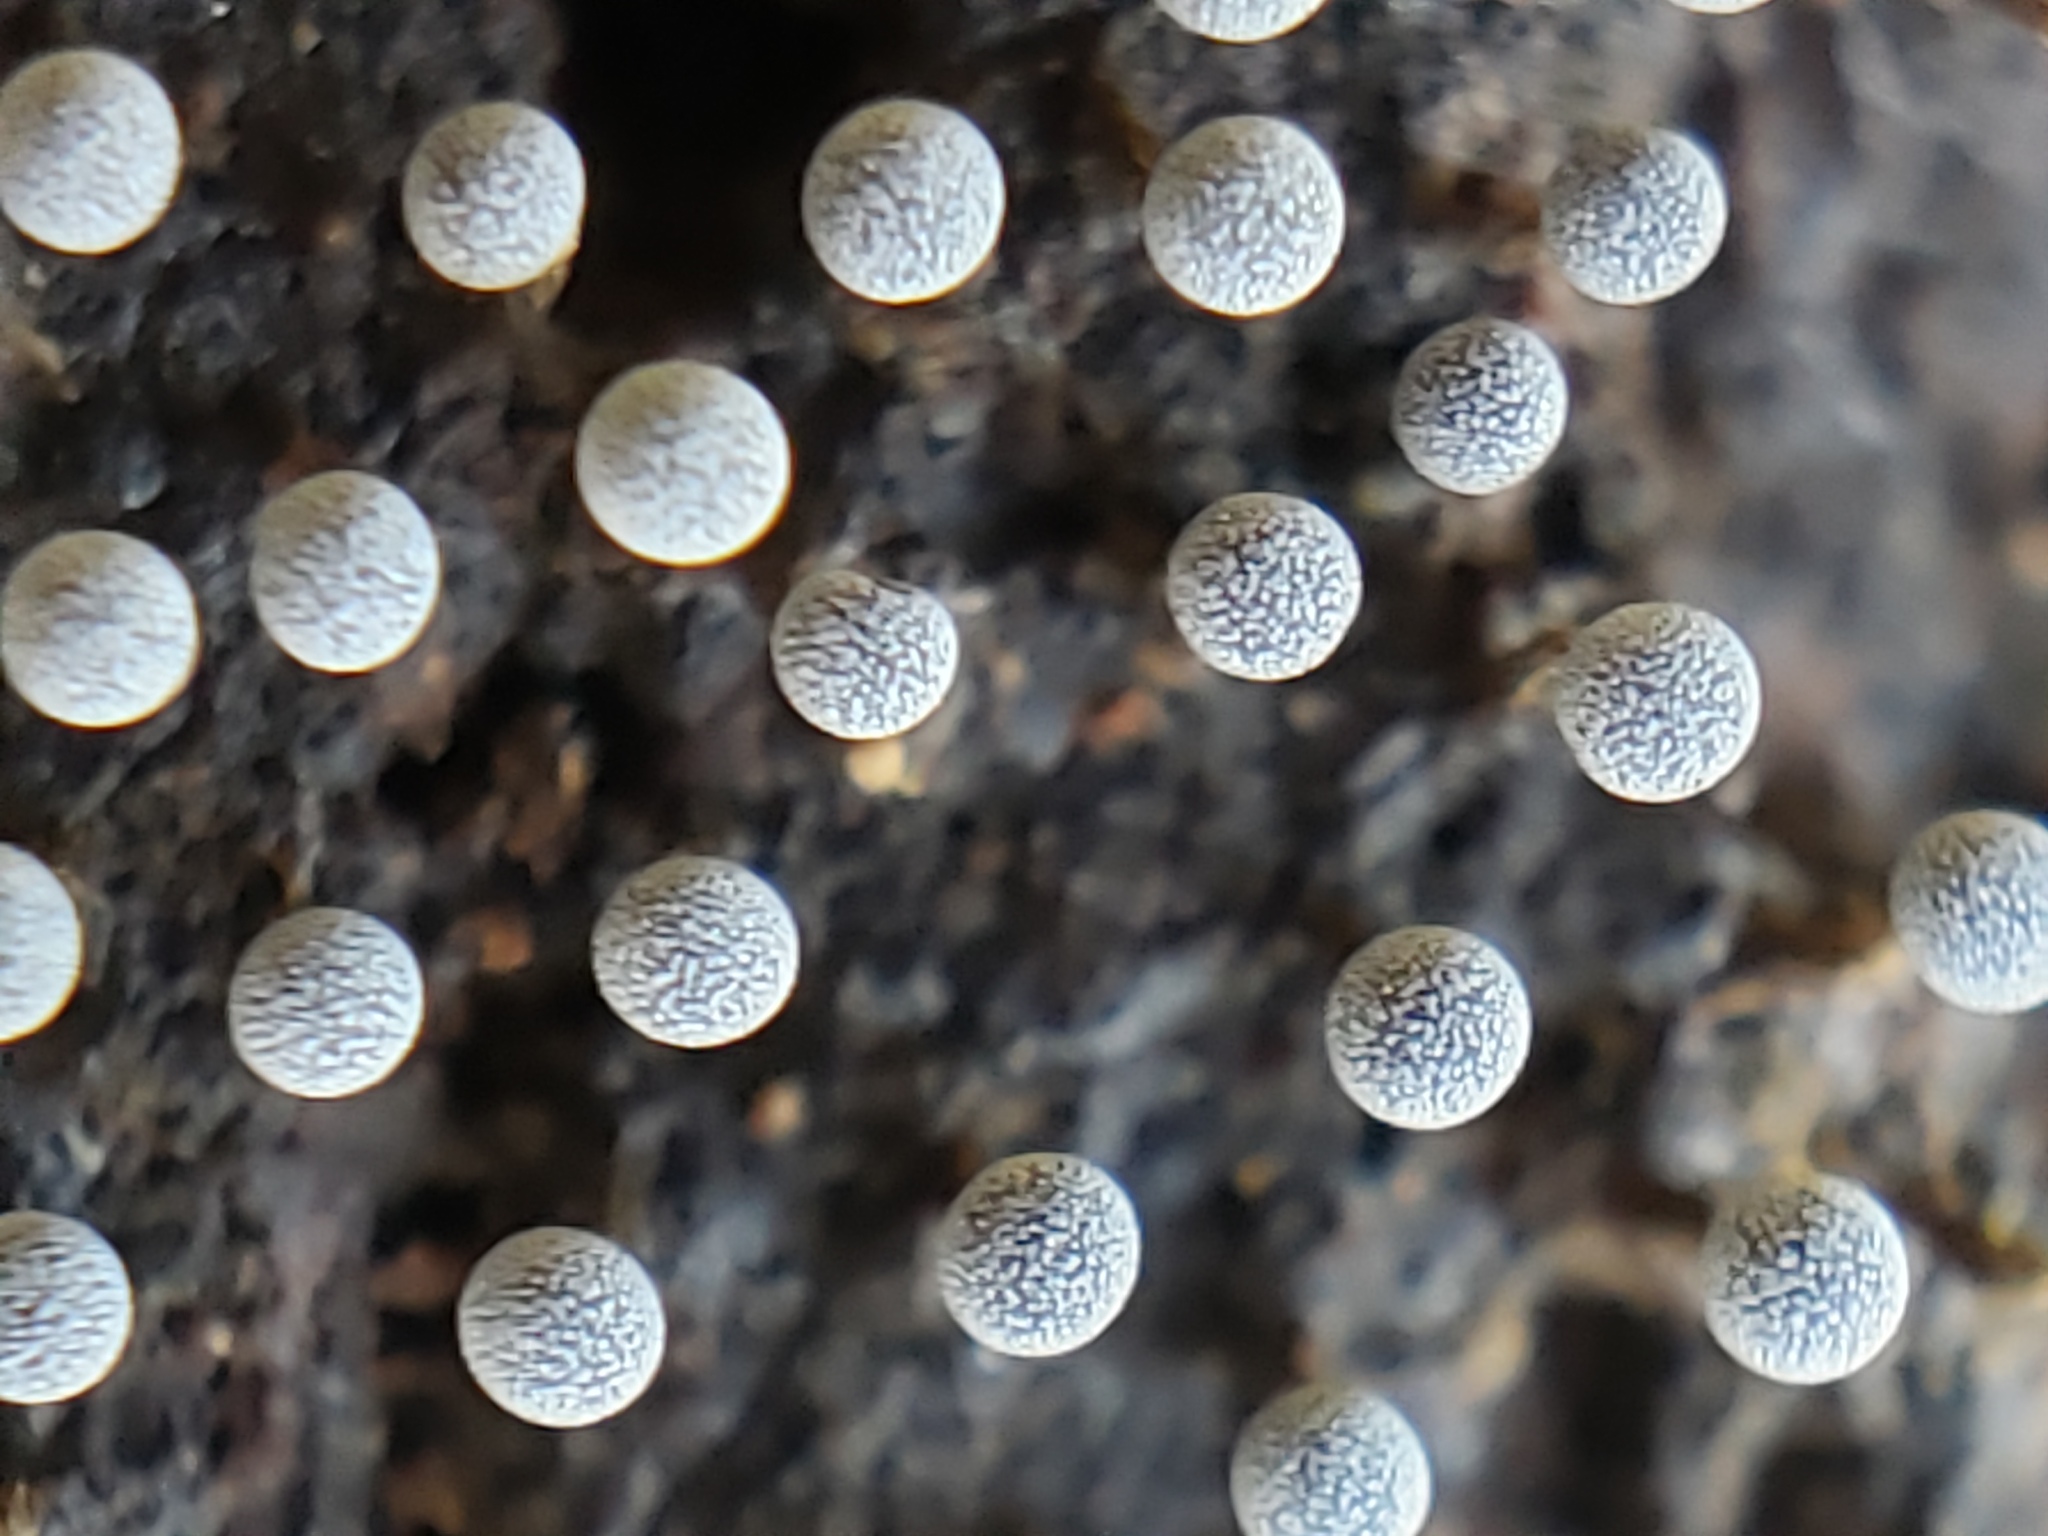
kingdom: Protozoa
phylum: Mycetozoa
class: Myxomycetes
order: Physarales
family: Physaraceae
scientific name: Physaraceae
